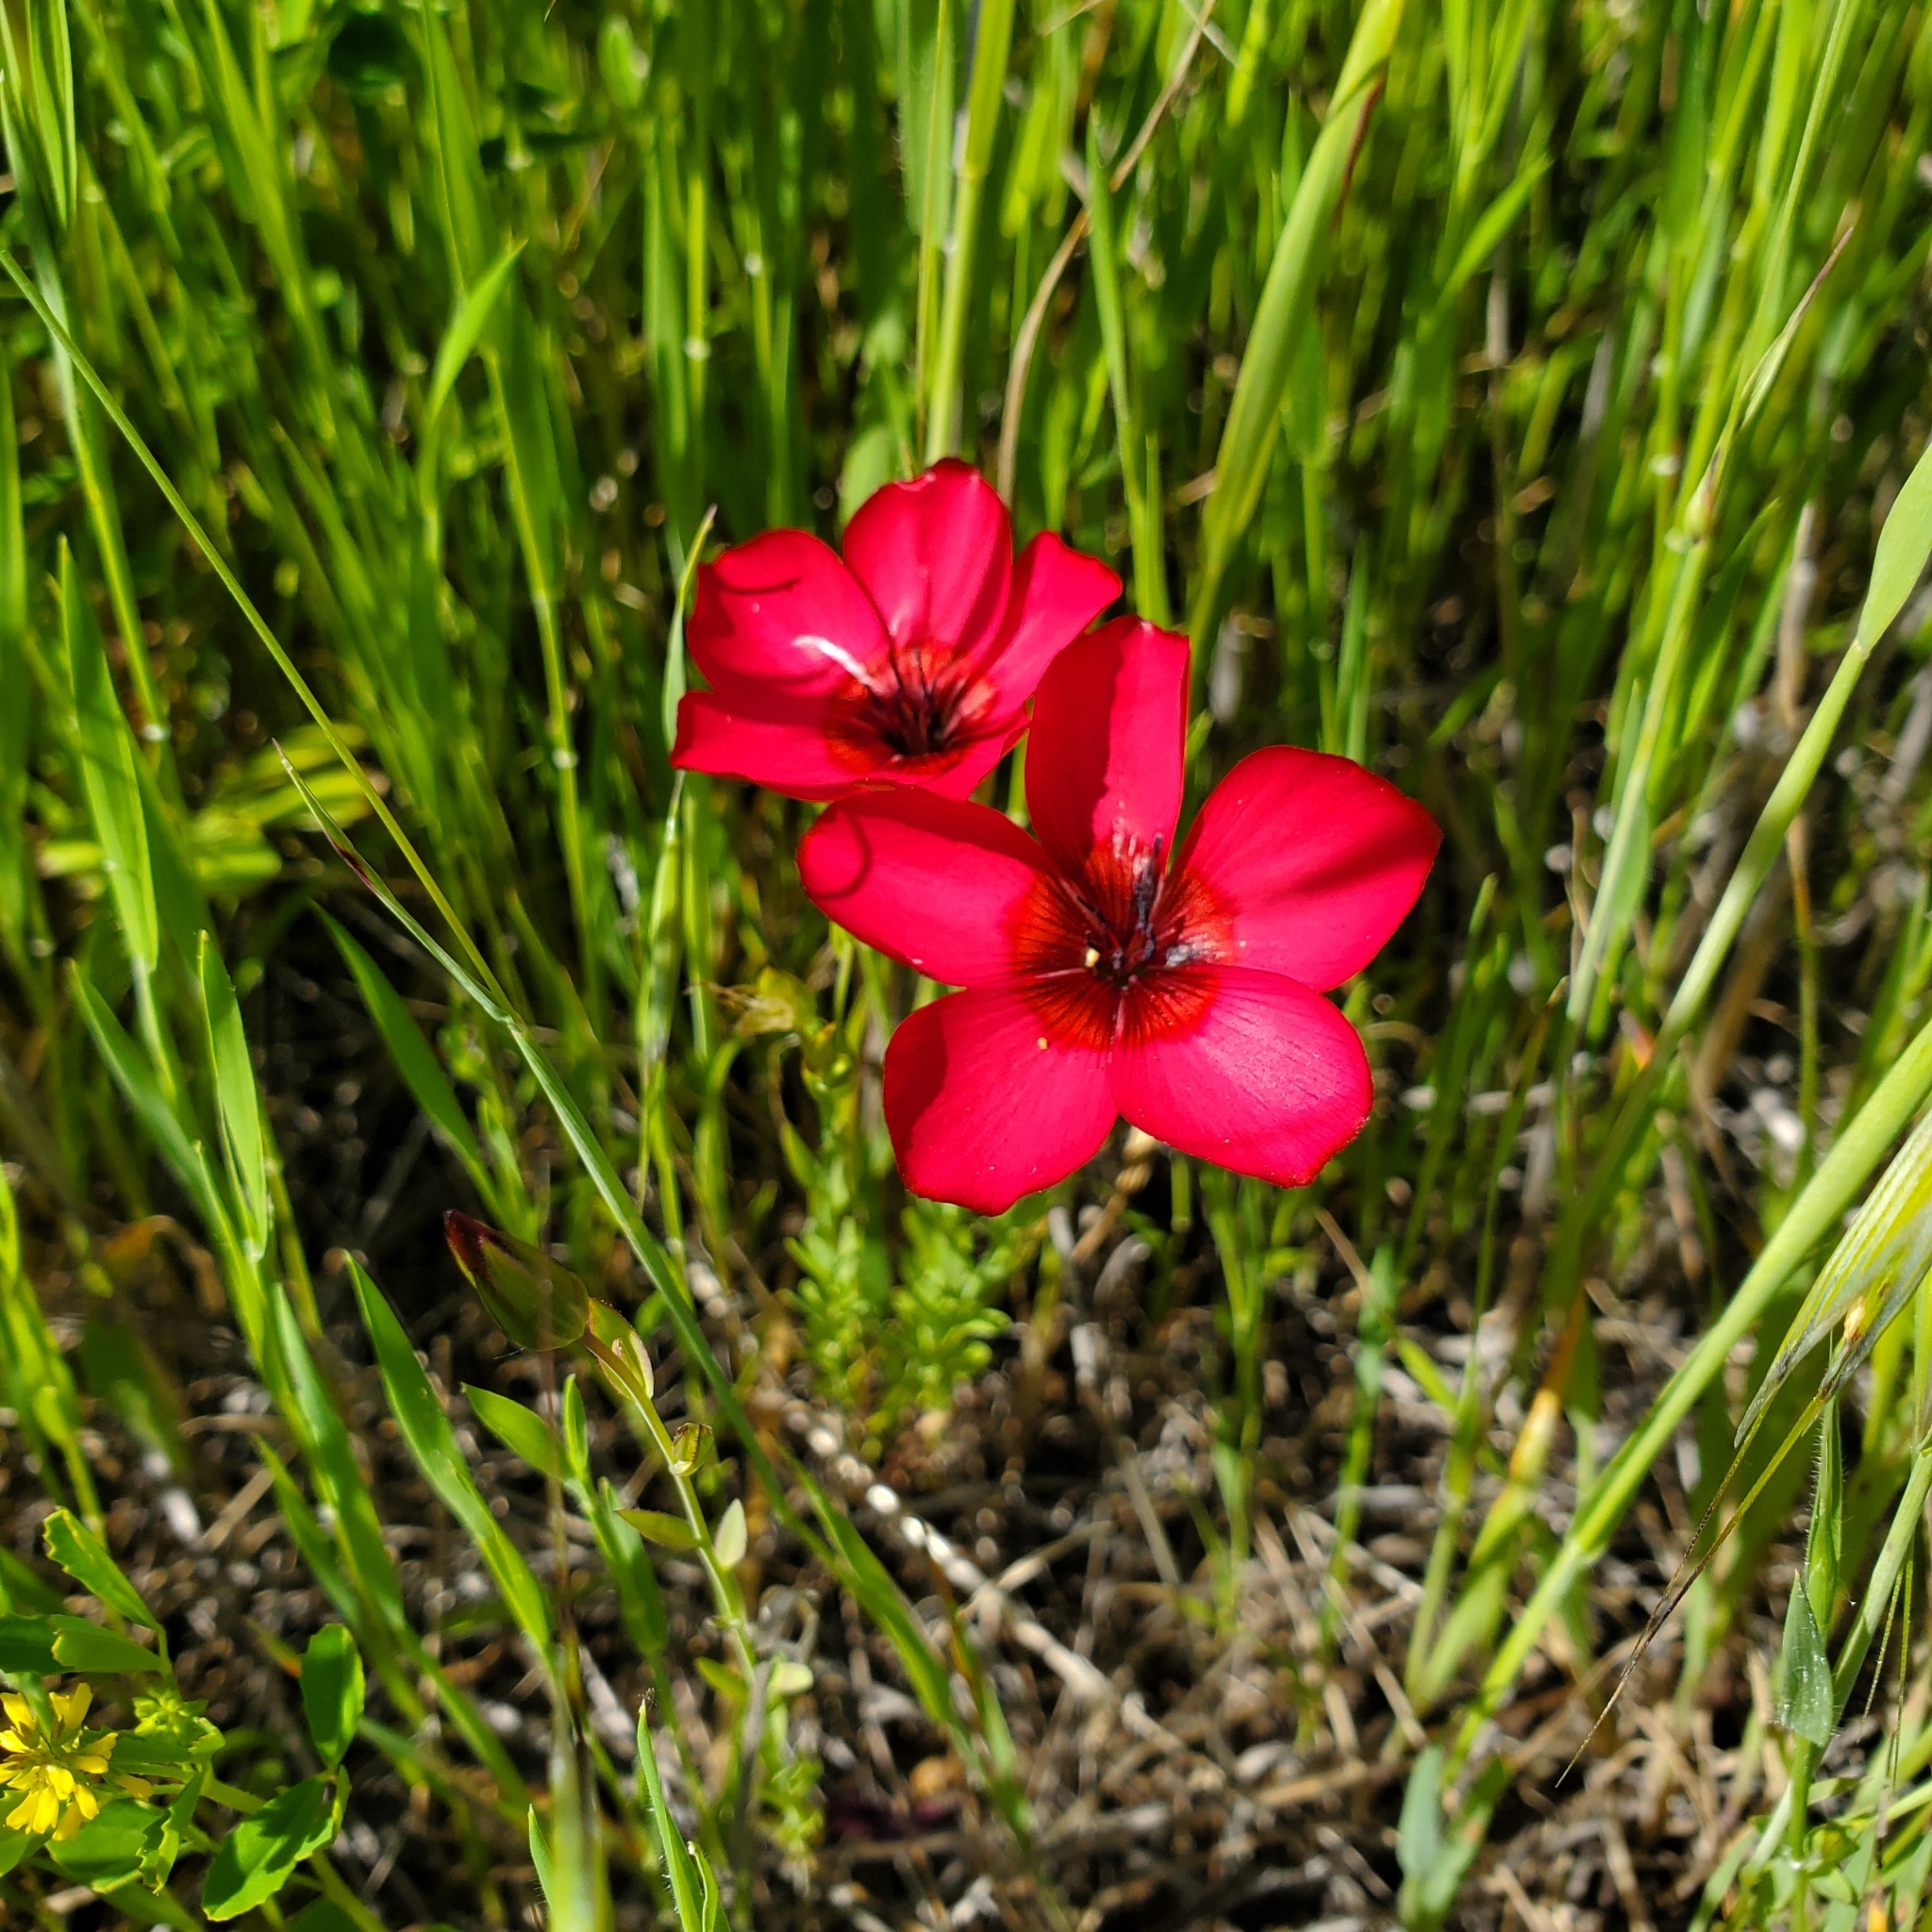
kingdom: Plantae
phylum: Tracheophyta
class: Magnoliopsida
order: Malpighiales
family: Linaceae
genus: Linum
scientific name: Linum grandiflorum
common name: Crimson flax
